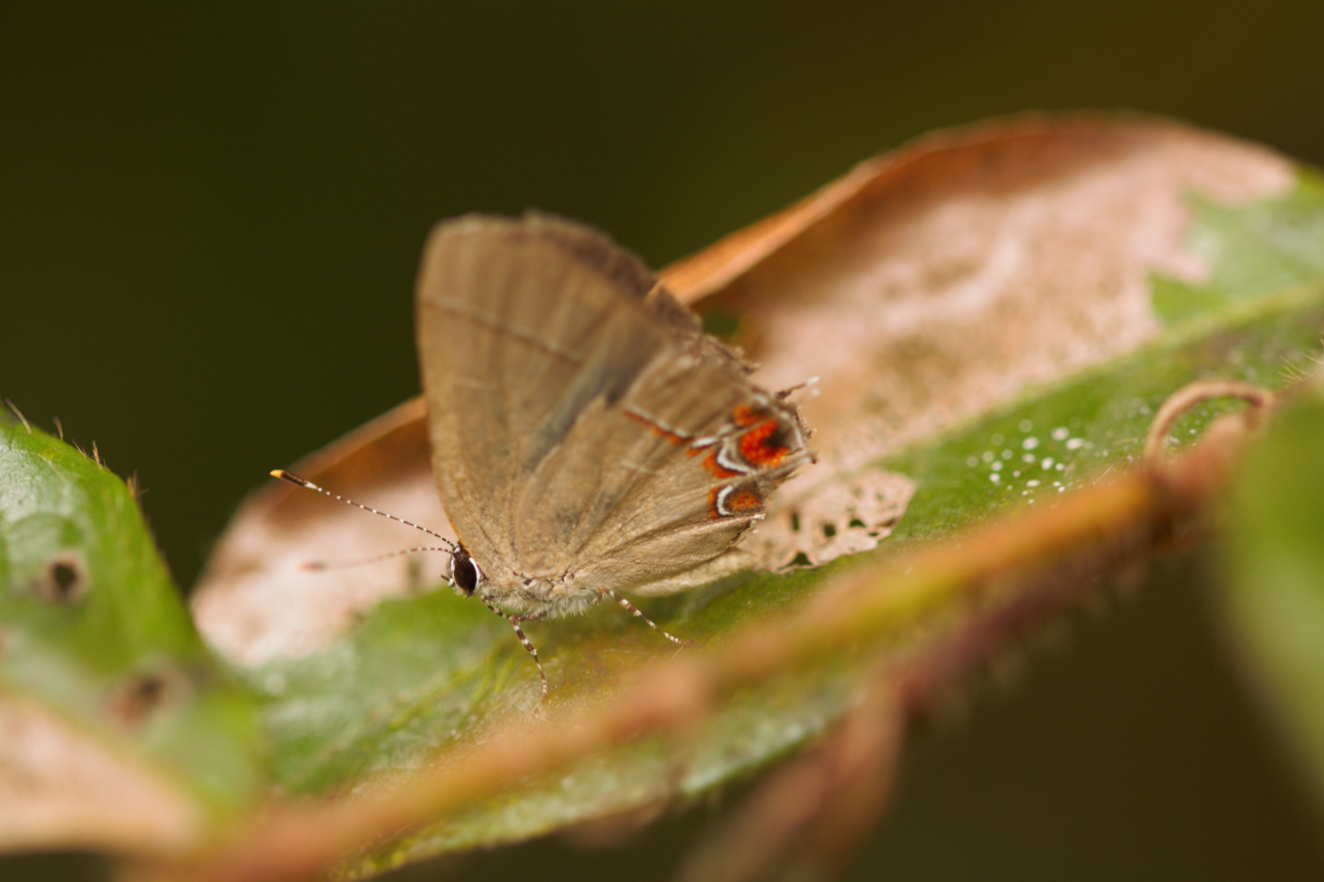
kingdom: Animalia
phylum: Arthropoda
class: Insecta
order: Lepidoptera
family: Lycaenidae
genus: Calycopis
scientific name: Calycopis
